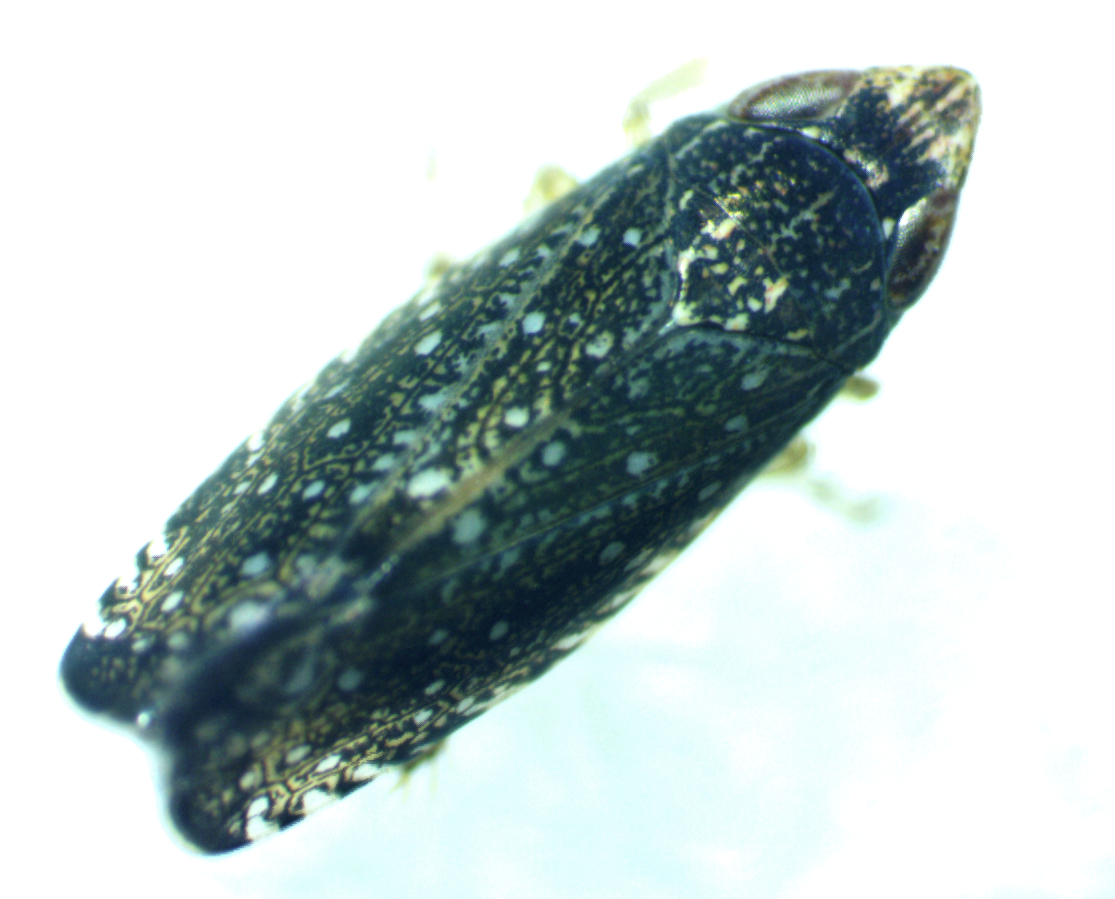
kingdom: Animalia
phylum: Arthropoda
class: Insecta
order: Hemiptera
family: Cicadellidae
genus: Scaphytopius
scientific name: Scaphytopius frontalis
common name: The yellow-faced leafhopper
